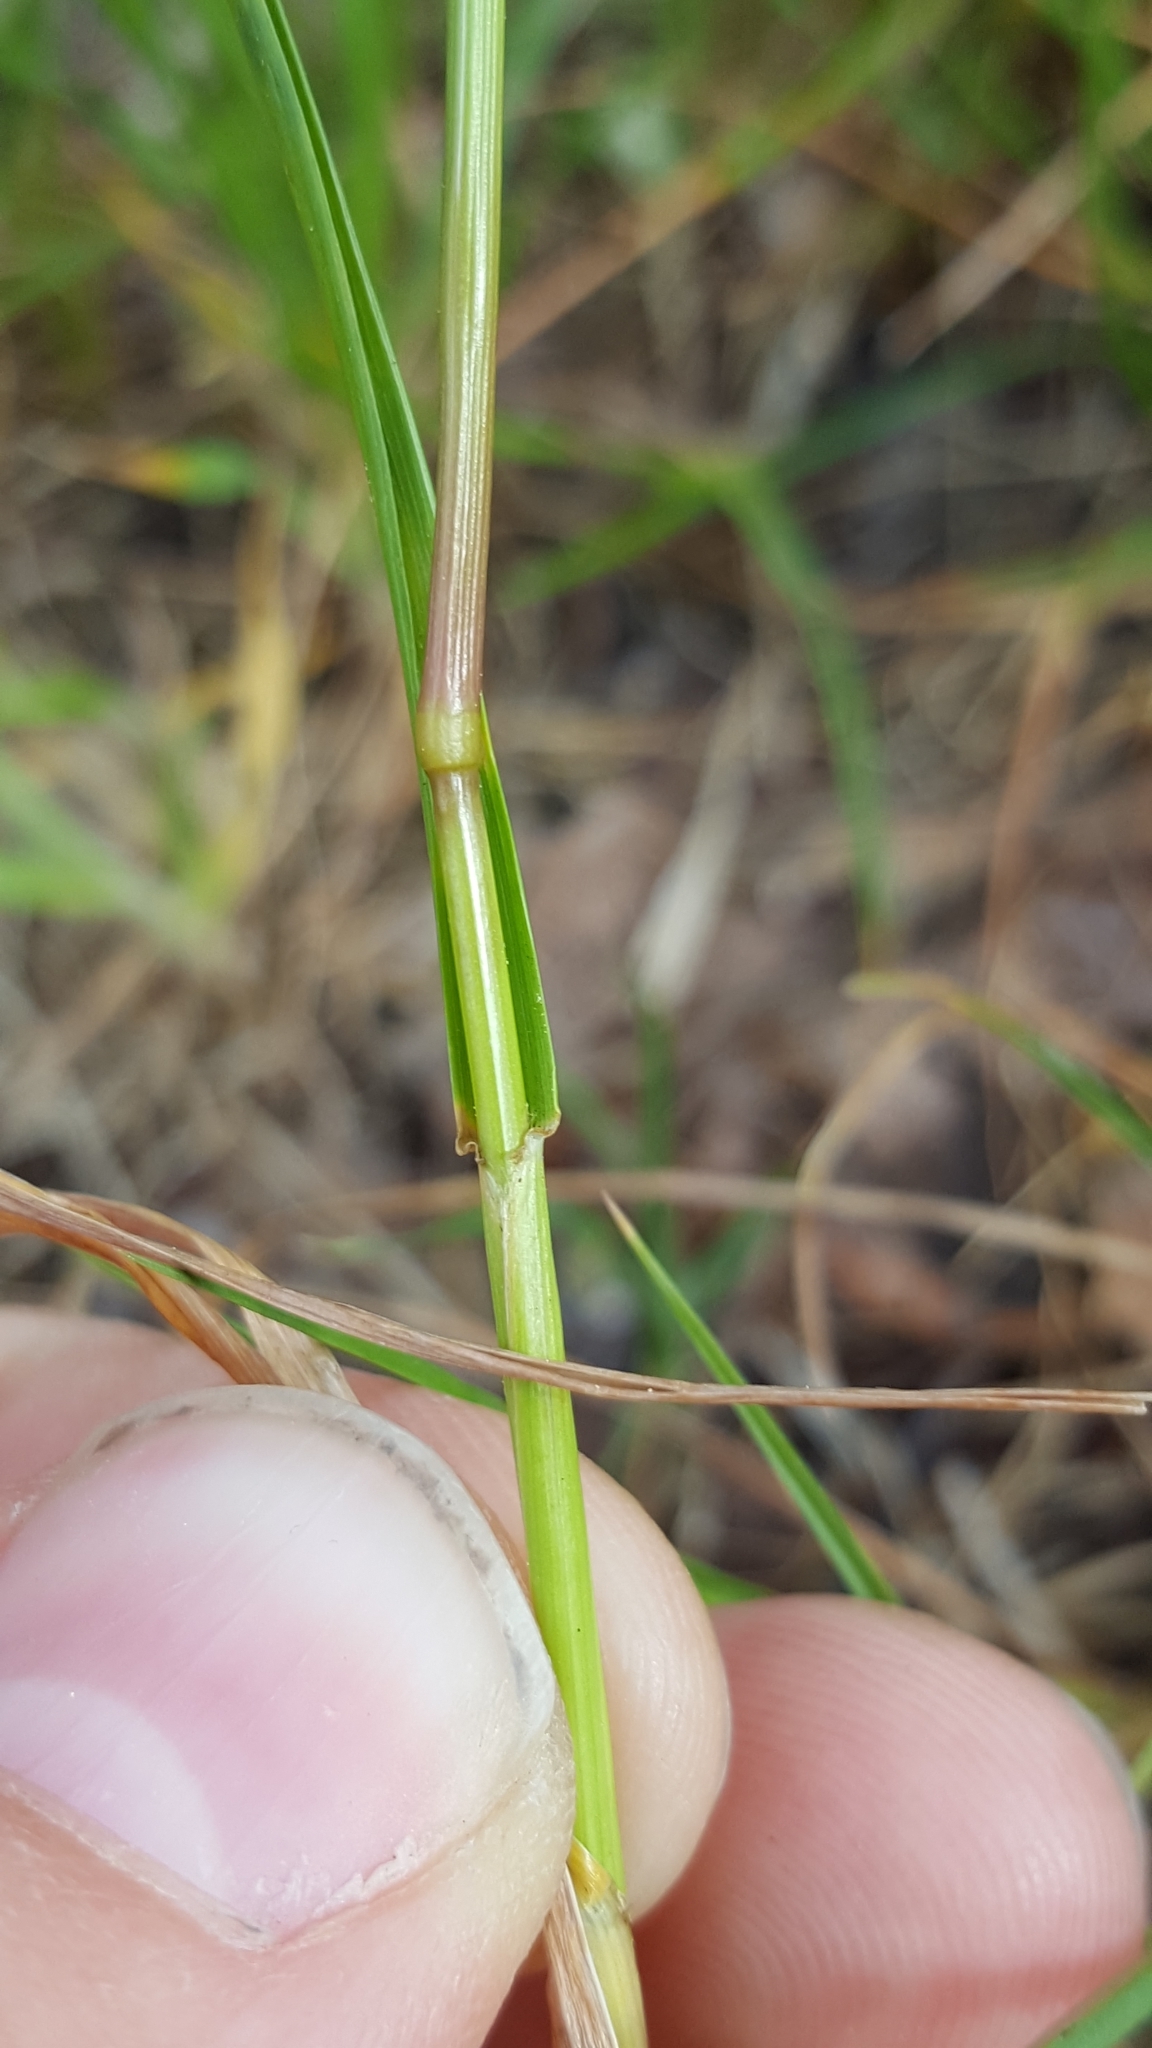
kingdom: Plantae
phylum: Tracheophyta
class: Liliopsida
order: Poales
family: Poaceae
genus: Lolium
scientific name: Lolium perenne
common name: Perennial ryegrass
